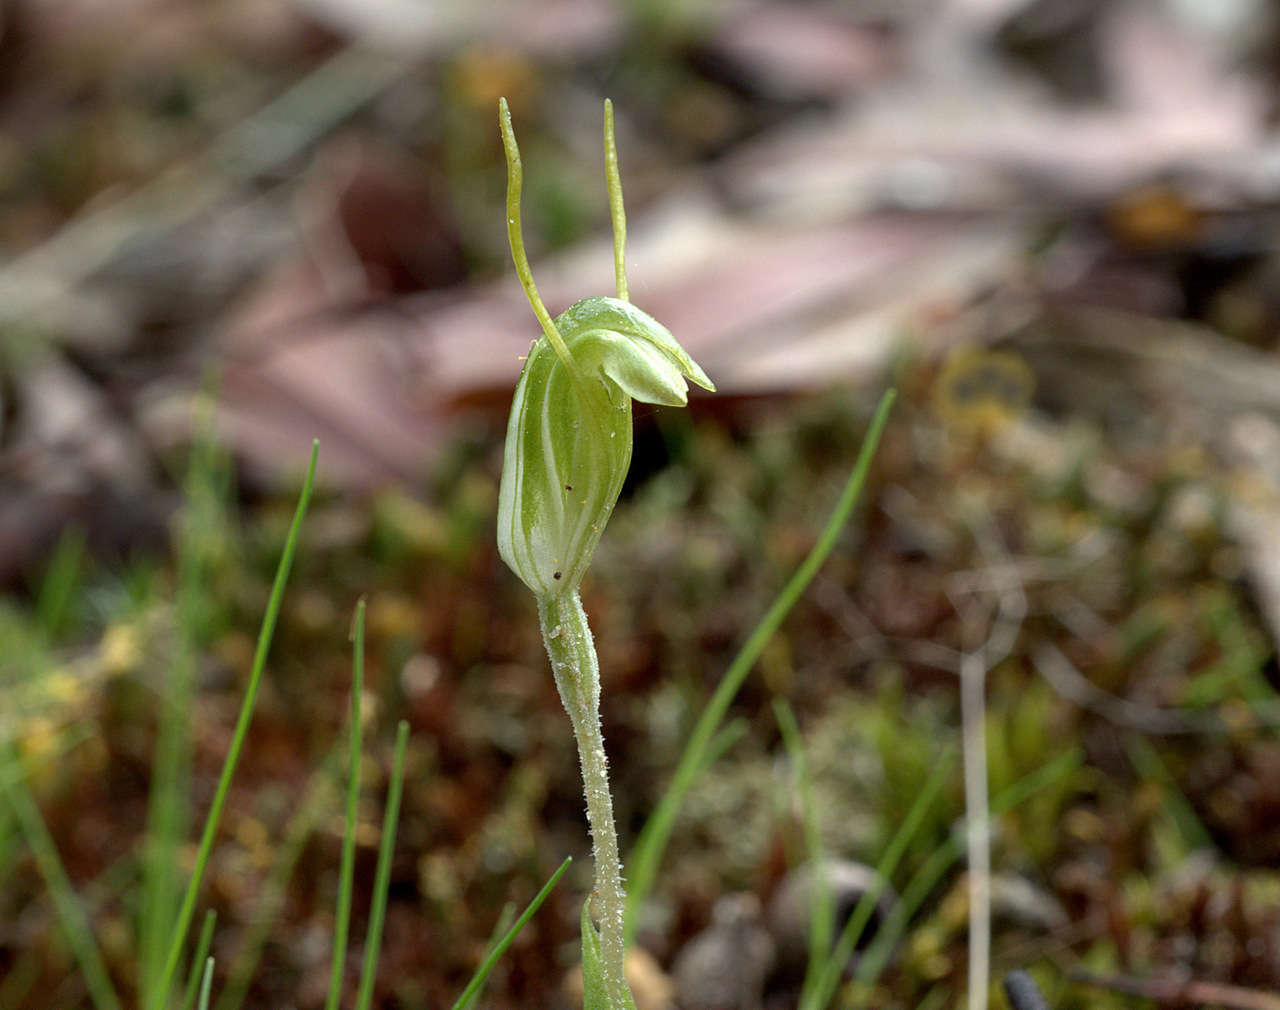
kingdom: Plantae
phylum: Tracheophyta
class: Liliopsida
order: Asparagales
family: Orchidaceae
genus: Pterostylis
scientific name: Pterostylis nana
